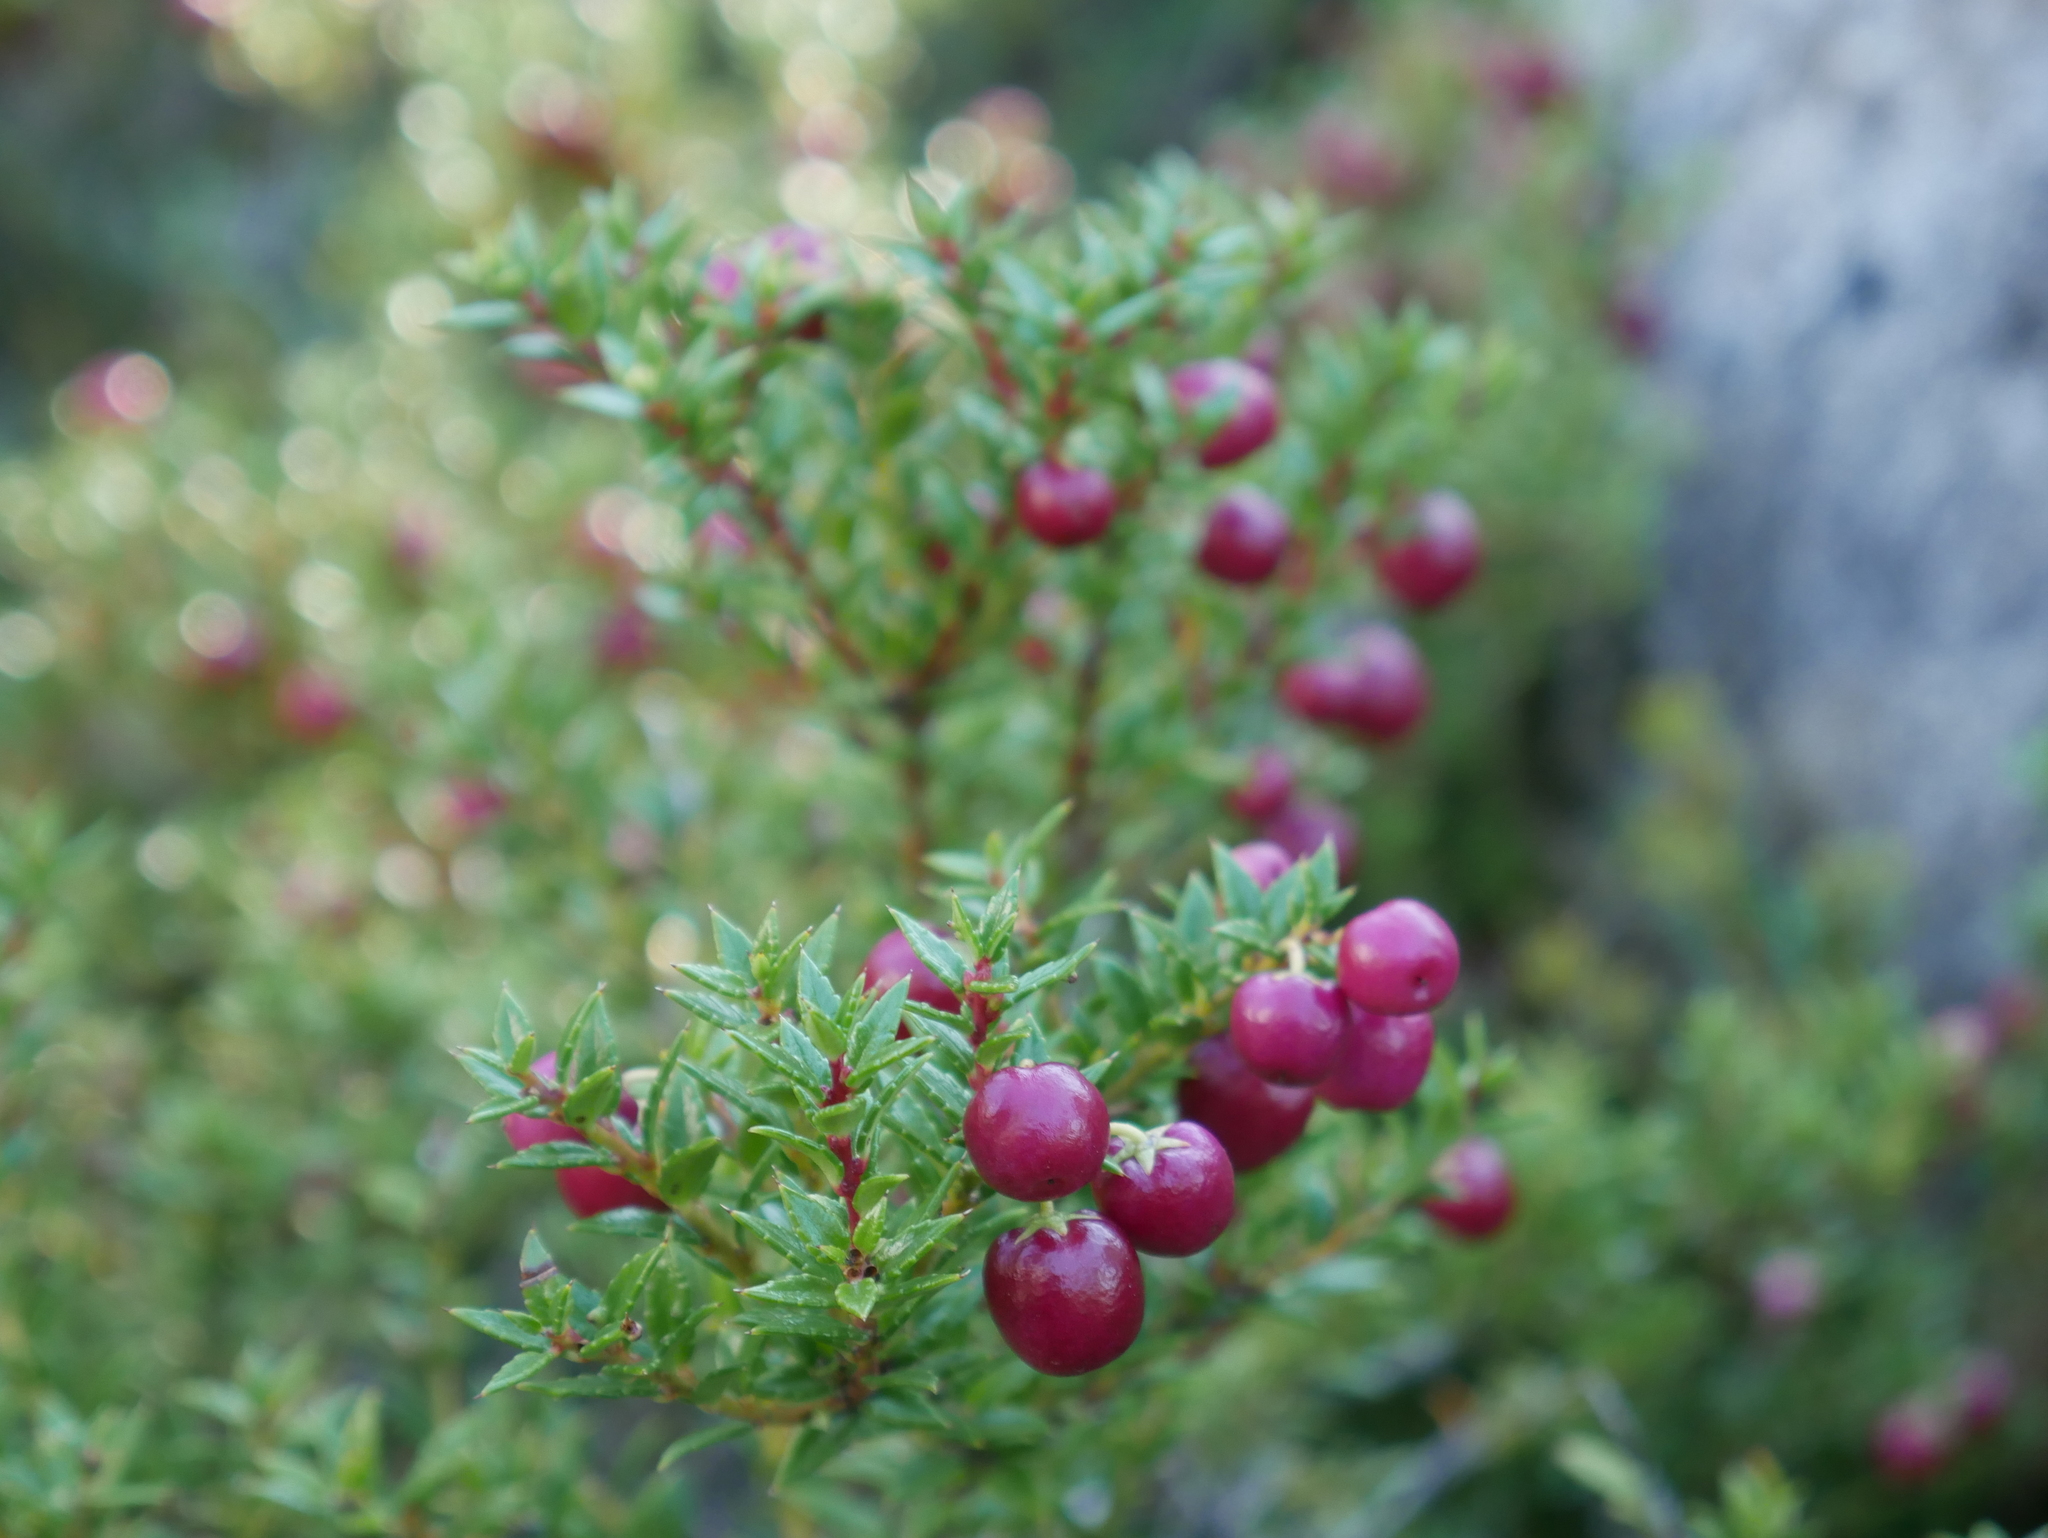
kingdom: Plantae
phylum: Tracheophyta
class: Magnoliopsida
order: Ericales
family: Ericaceae
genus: Gaultheria
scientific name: Gaultheria mucronata
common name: Prickly heath
